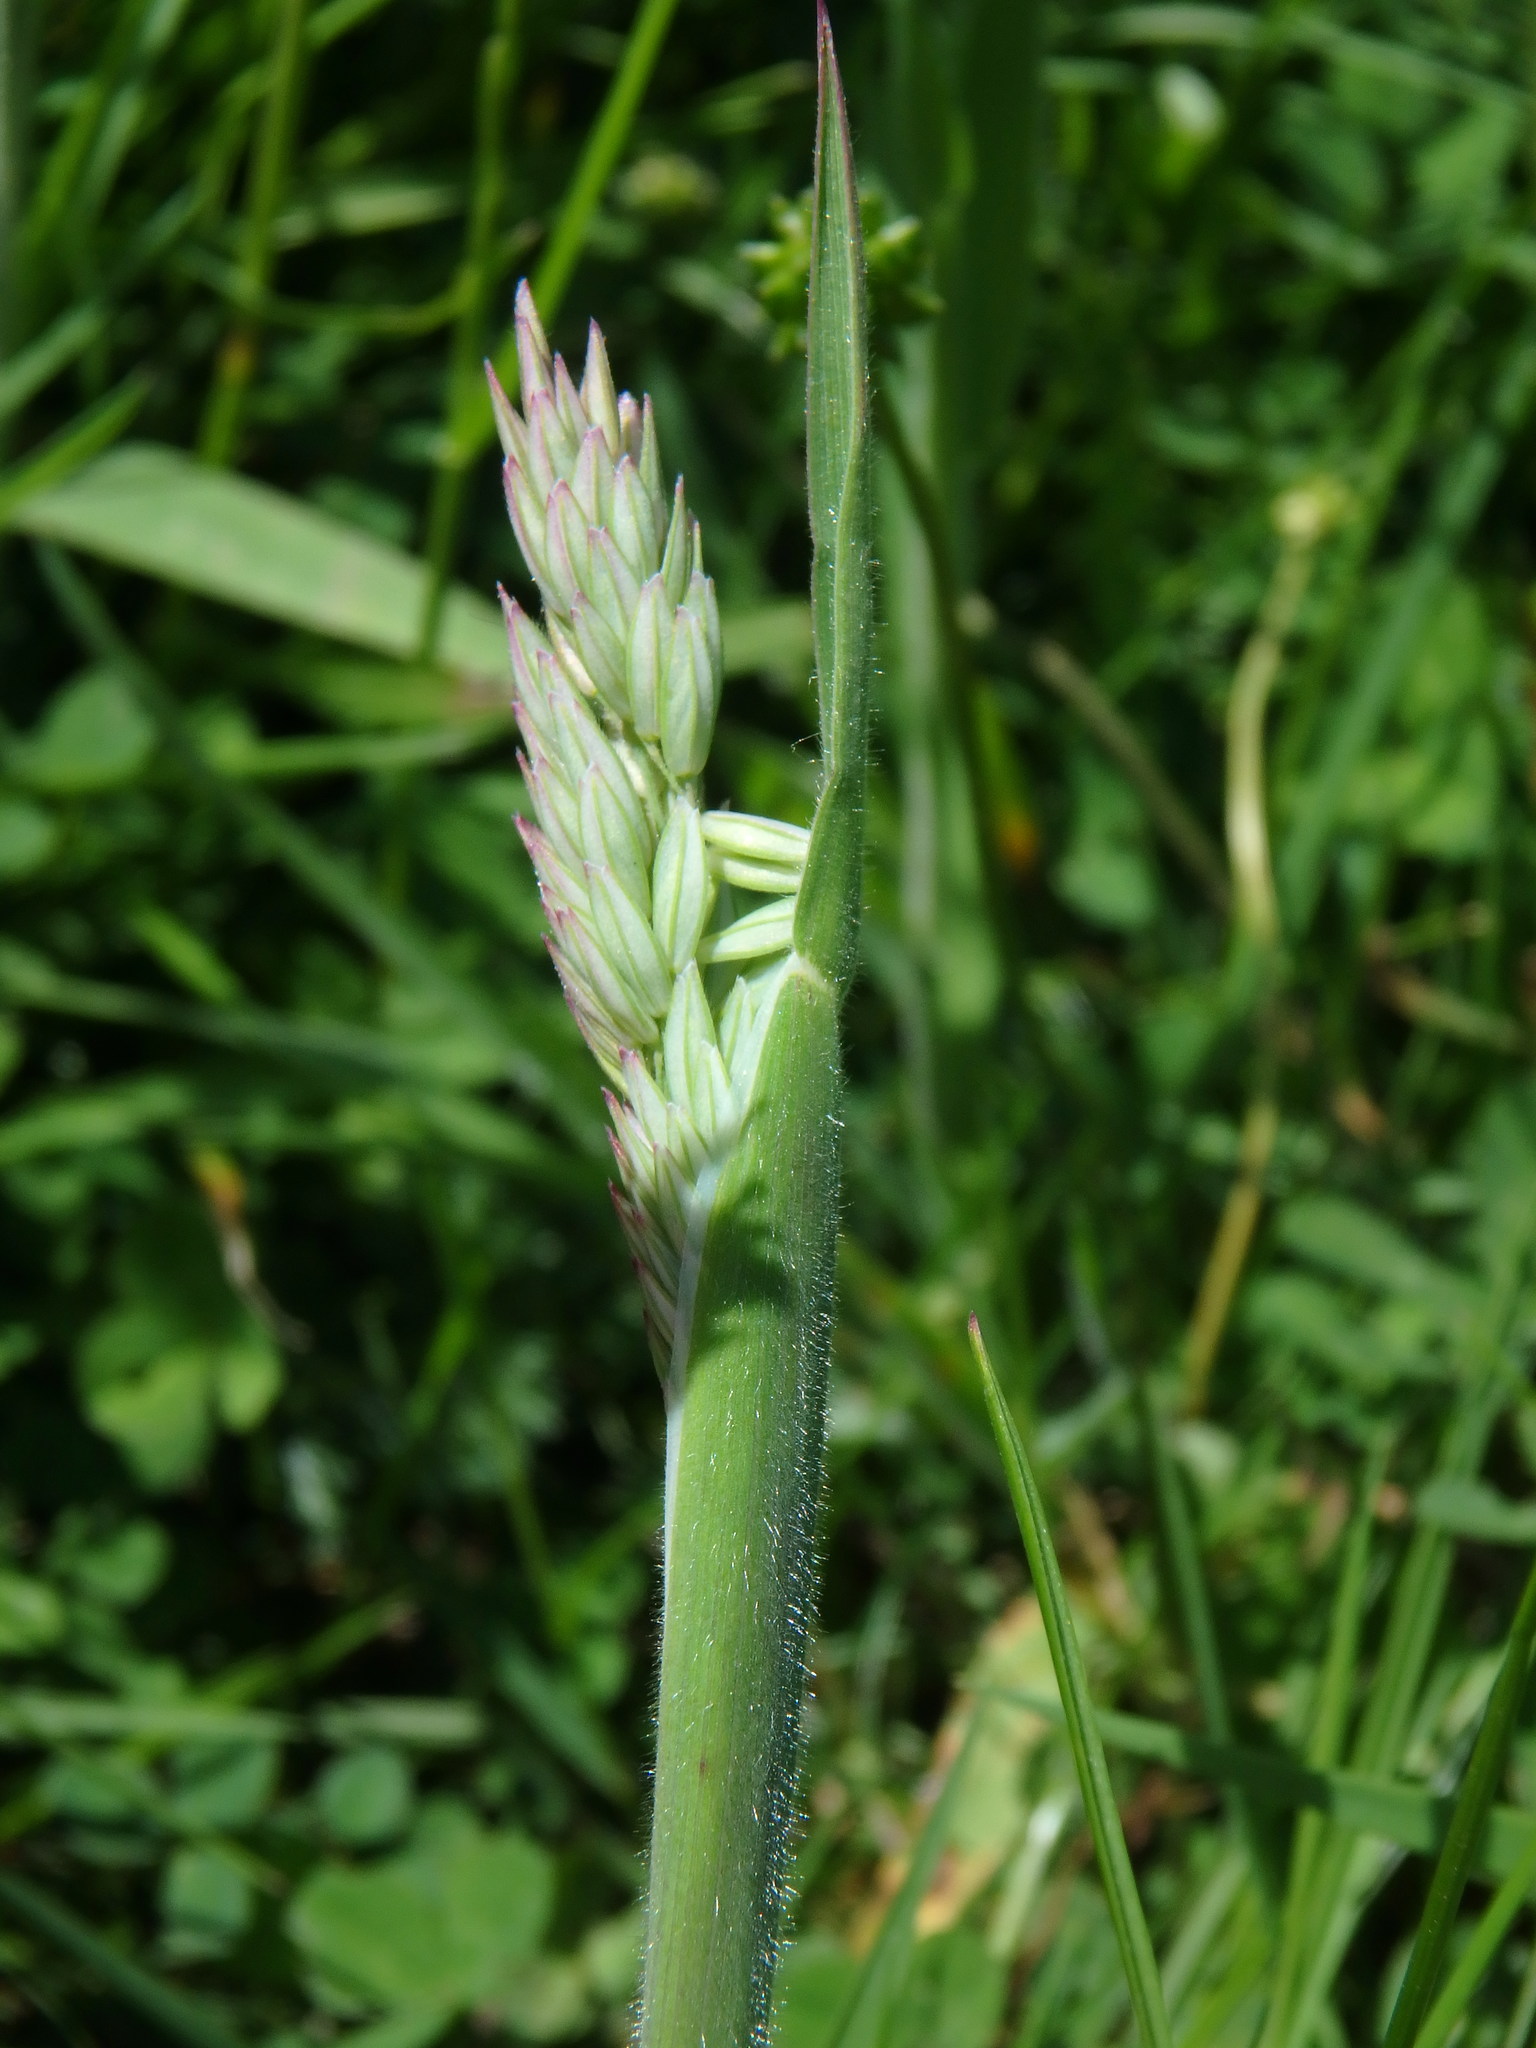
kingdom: Plantae
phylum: Tracheophyta
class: Liliopsida
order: Poales
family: Poaceae
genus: Holcus
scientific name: Holcus lanatus
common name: Yorkshire-fog
